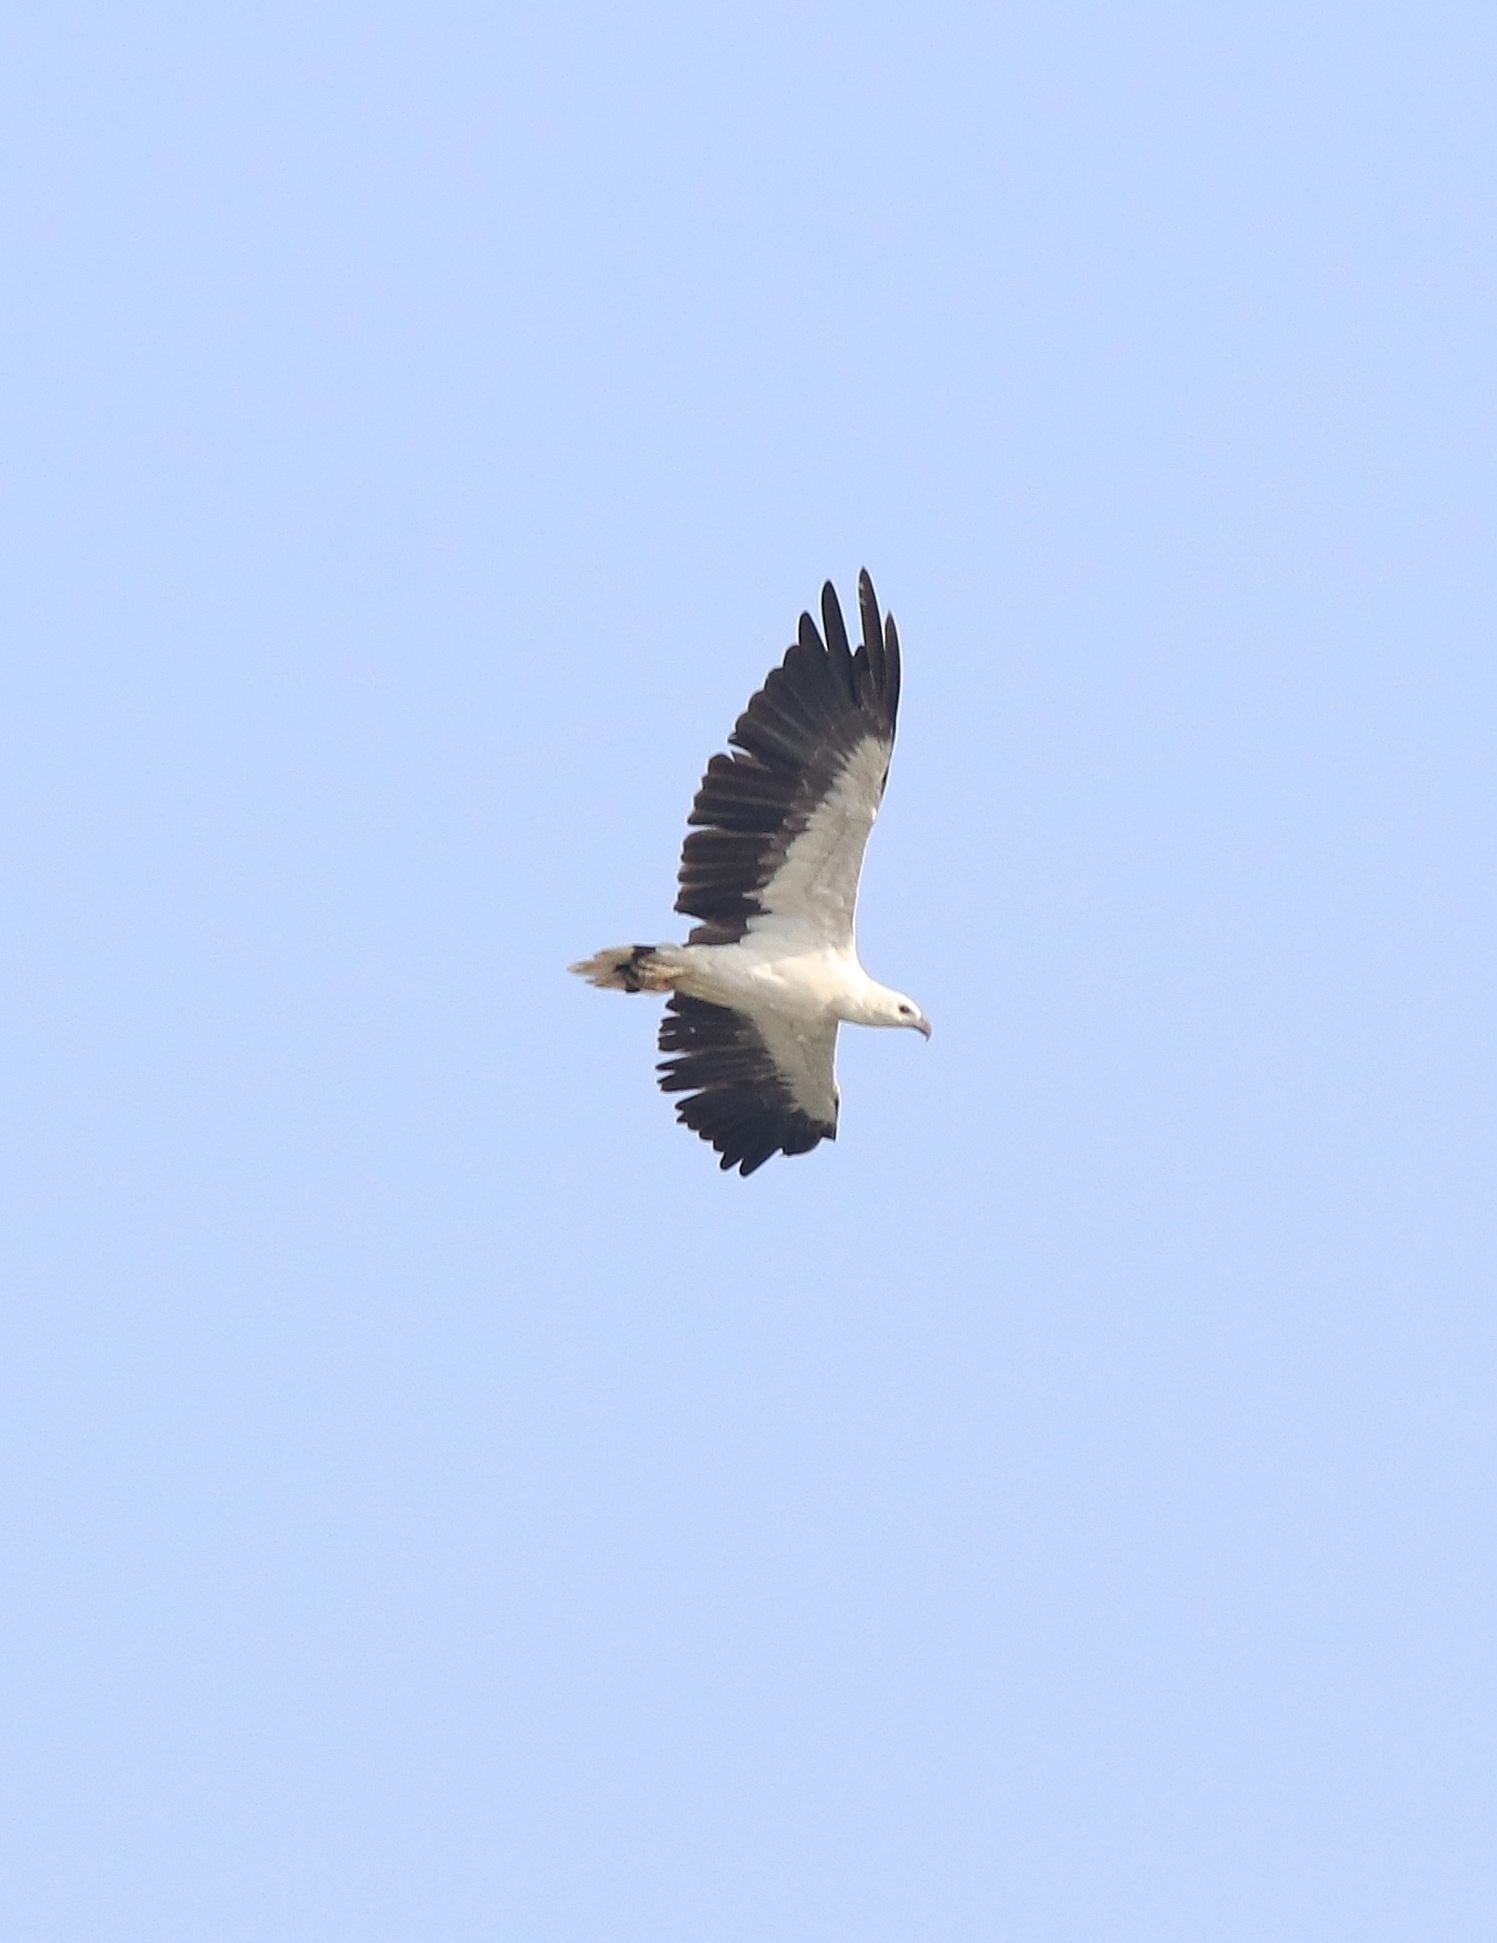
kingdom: Animalia
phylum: Chordata
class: Aves
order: Accipitriformes
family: Accipitridae
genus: Haliaeetus
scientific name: Haliaeetus leucogaster
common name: White-bellied sea eagle
